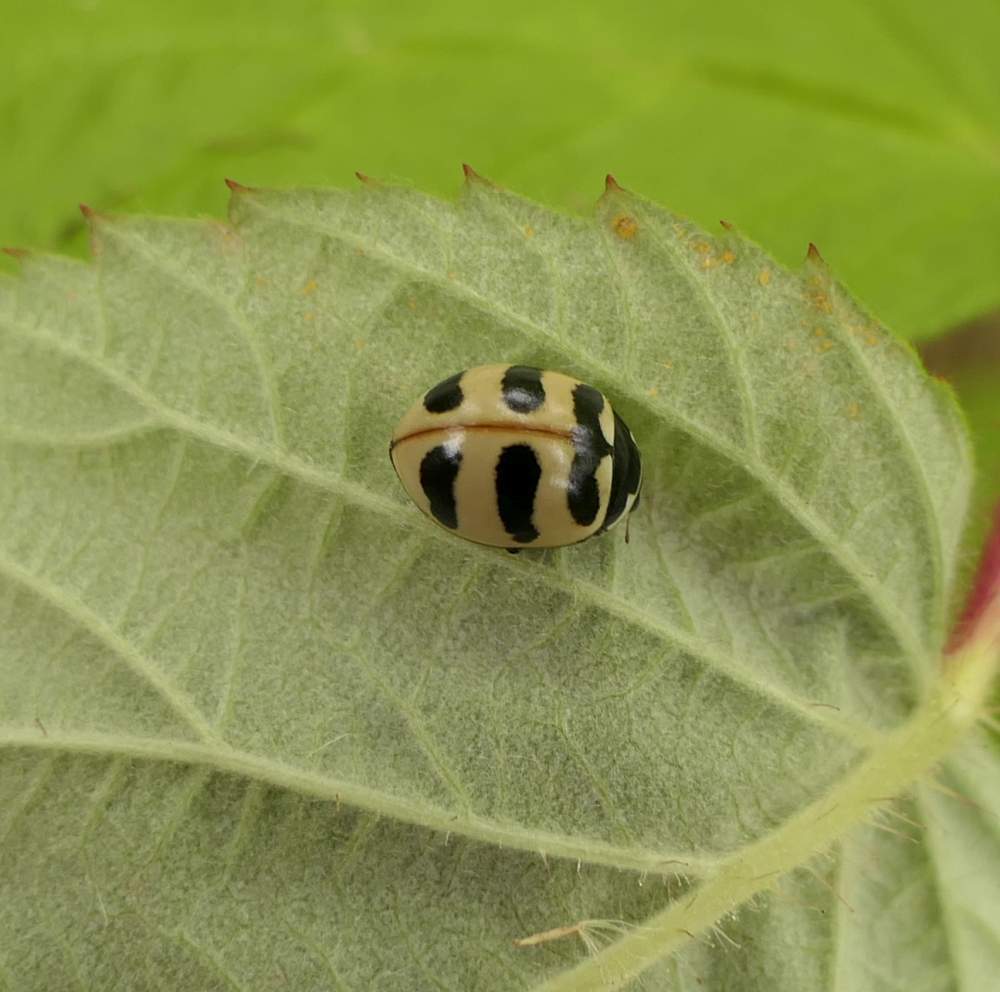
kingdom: Animalia
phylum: Arthropoda
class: Insecta
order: Coleoptera
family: Coccinellidae
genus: Coccinella
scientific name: Coccinella trifasciata
